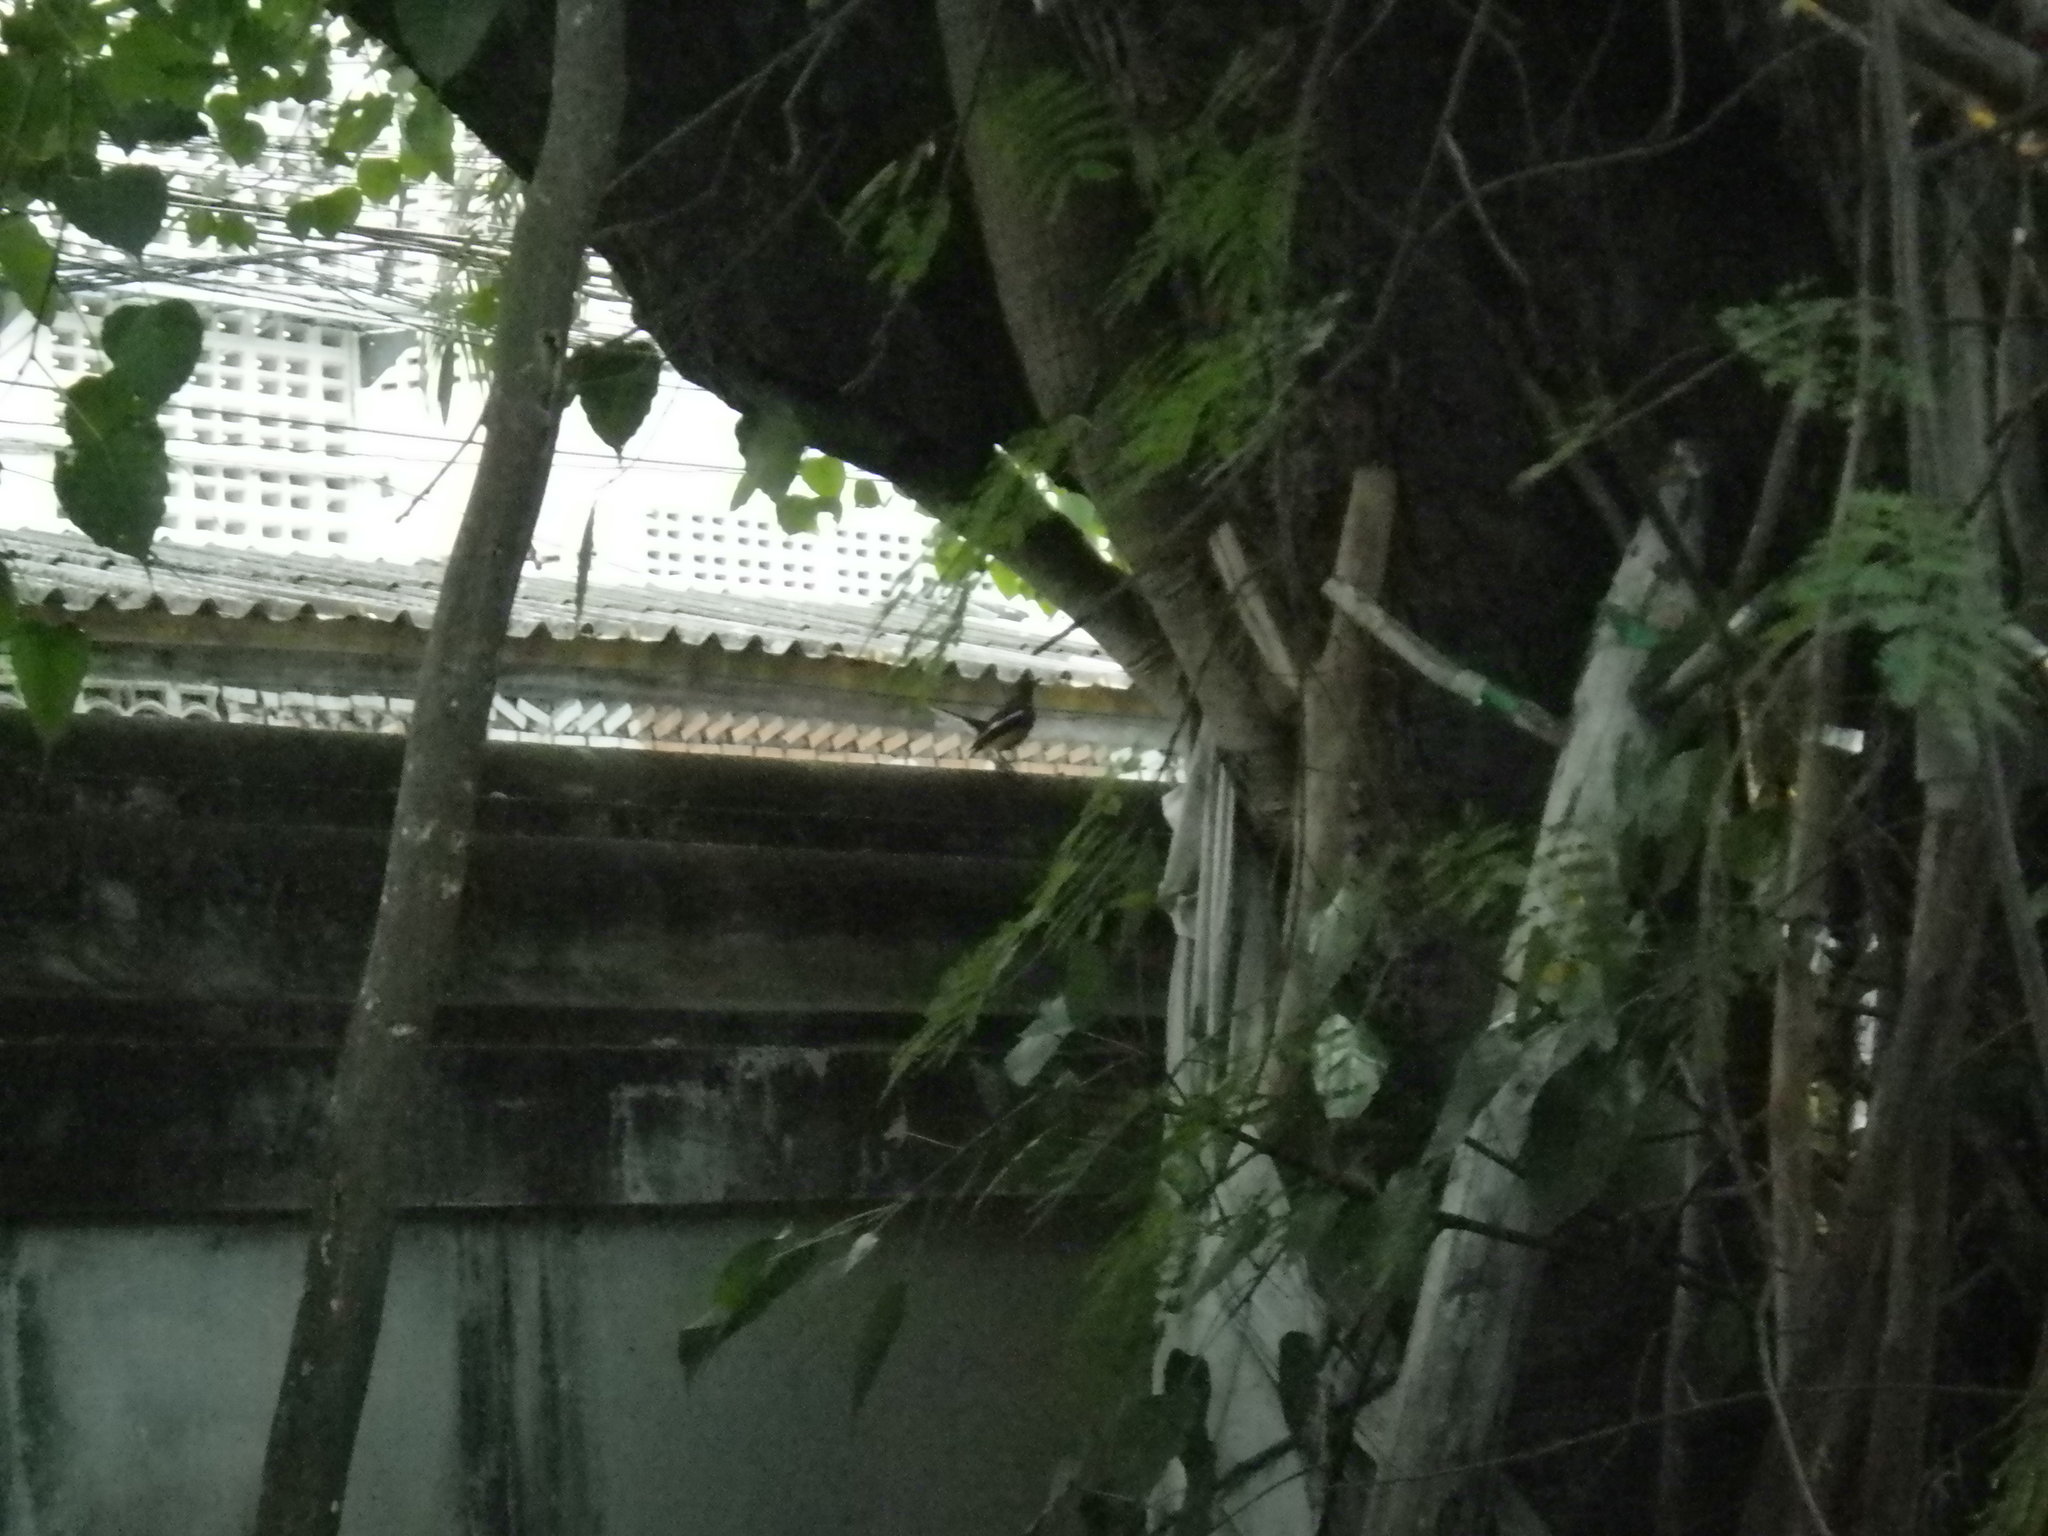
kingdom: Animalia
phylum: Chordata
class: Aves
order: Passeriformes
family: Muscicapidae
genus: Copsychus
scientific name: Copsychus saularis
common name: Oriental magpie-robin
